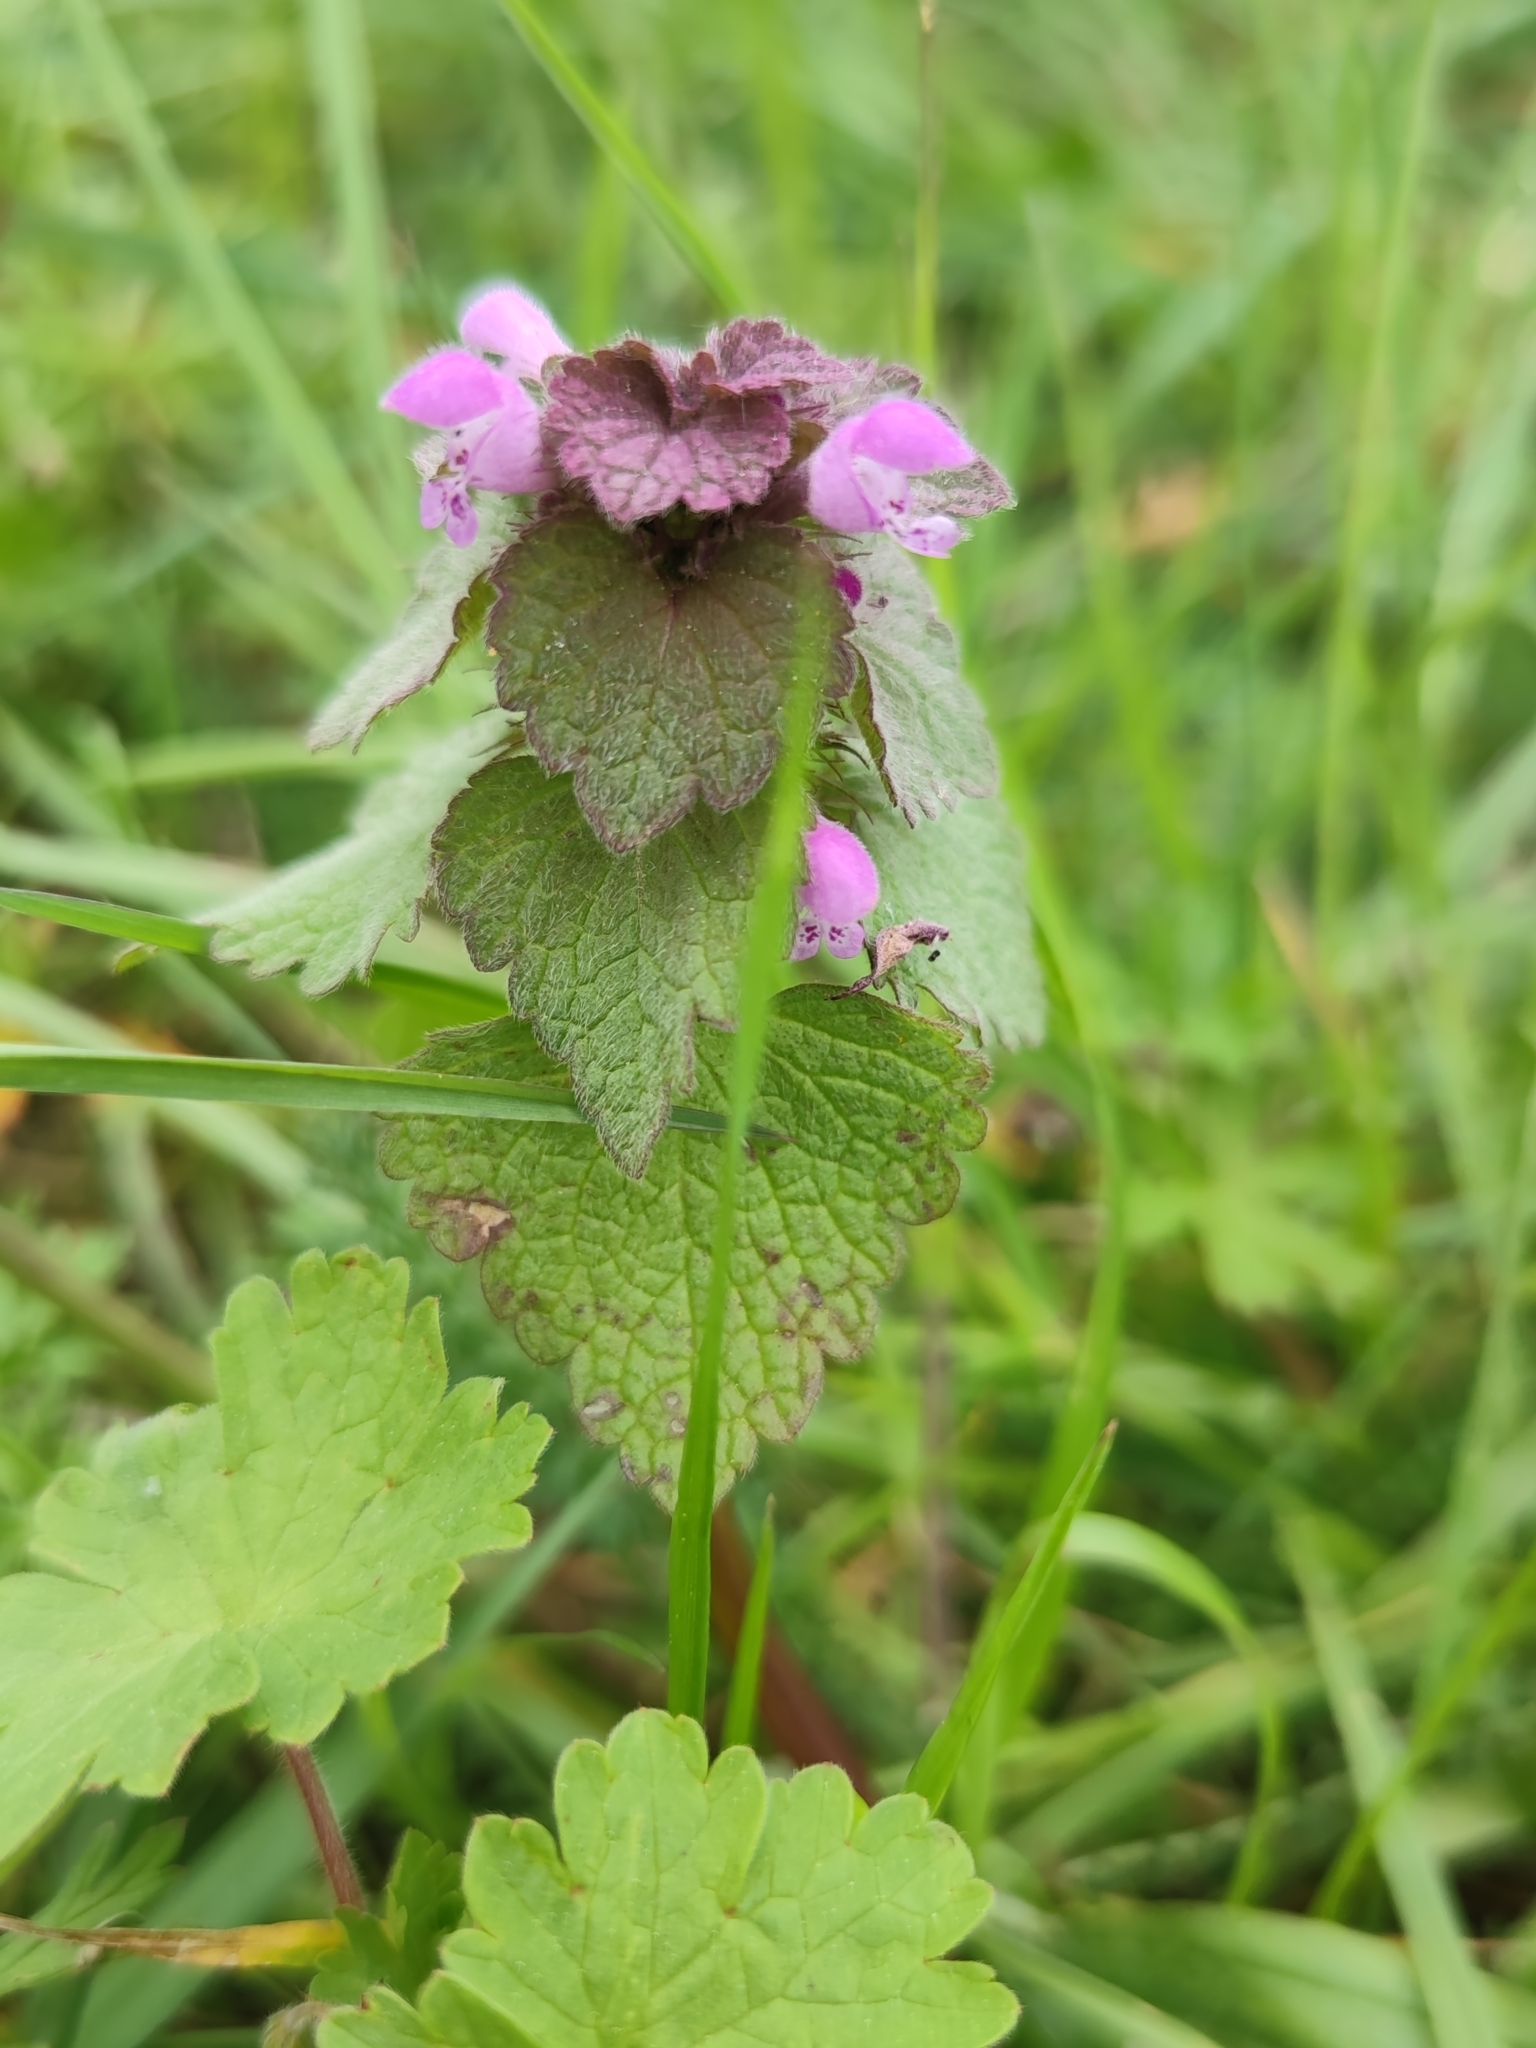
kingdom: Plantae
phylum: Tracheophyta
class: Magnoliopsida
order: Lamiales
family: Lamiaceae
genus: Lamium
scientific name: Lamium purpureum
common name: Red dead-nettle
